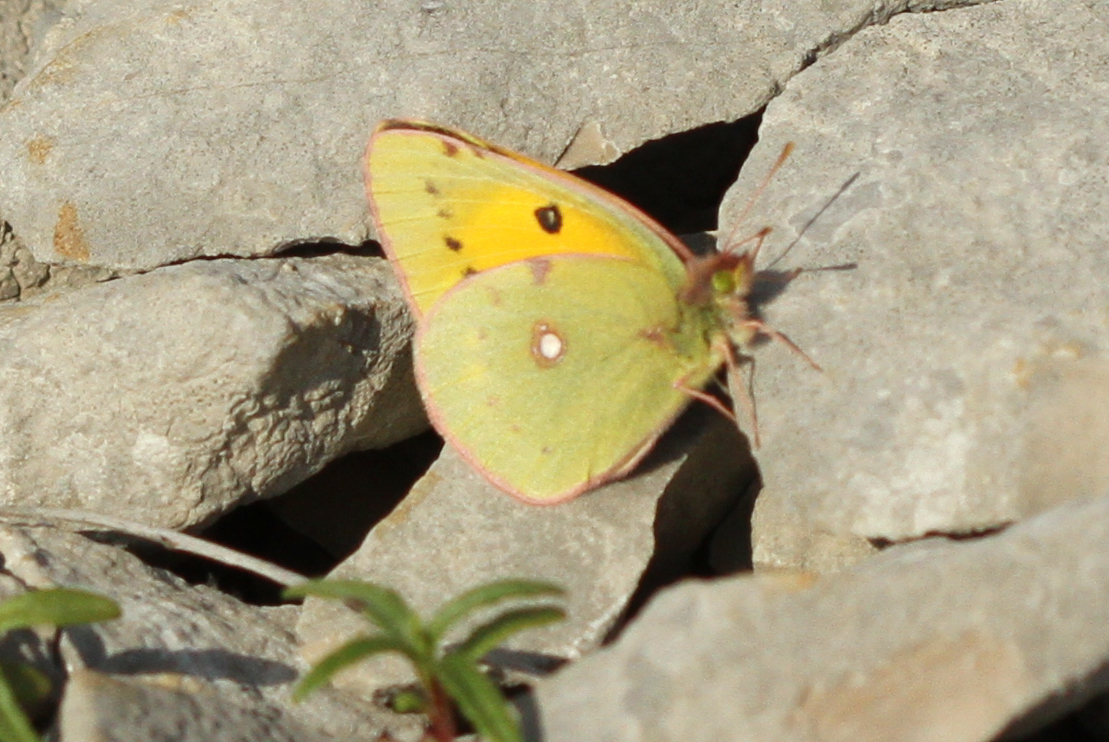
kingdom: Animalia
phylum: Arthropoda
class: Insecta
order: Lepidoptera
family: Pieridae
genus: Colias
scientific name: Colias croceus
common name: Clouded yellow
